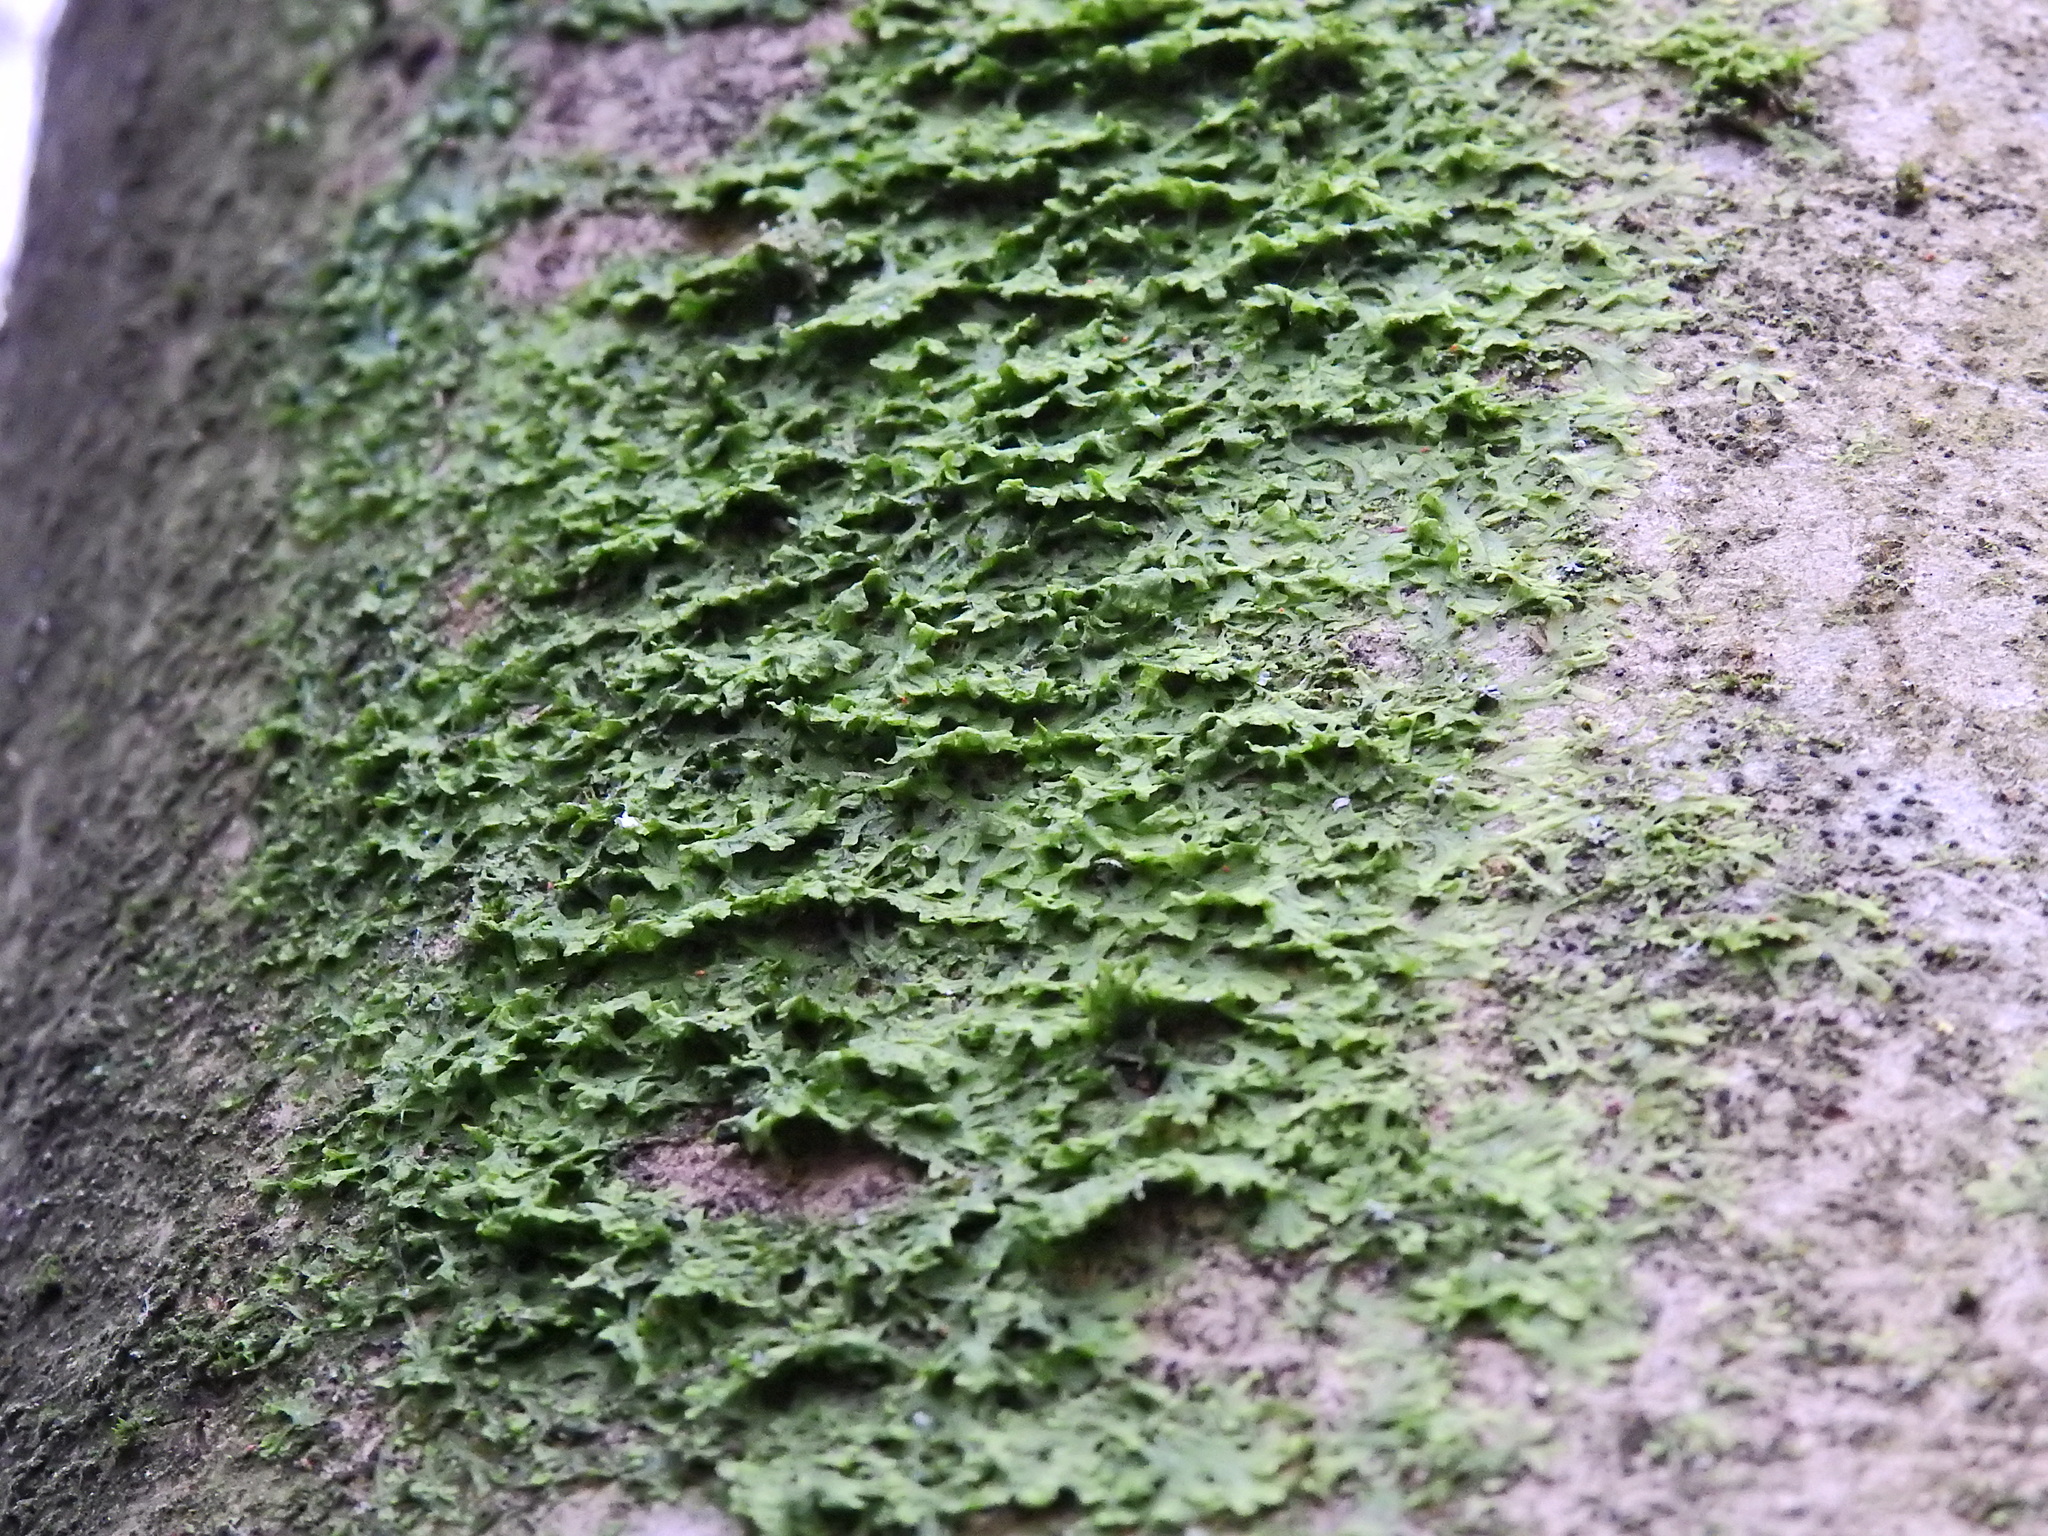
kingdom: Plantae
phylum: Marchantiophyta
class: Jungermanniopsida
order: Metzgeriales
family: Metzgeriaceae
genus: Metzgeria
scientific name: Metzgeria violacea
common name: Blueish veilwort
